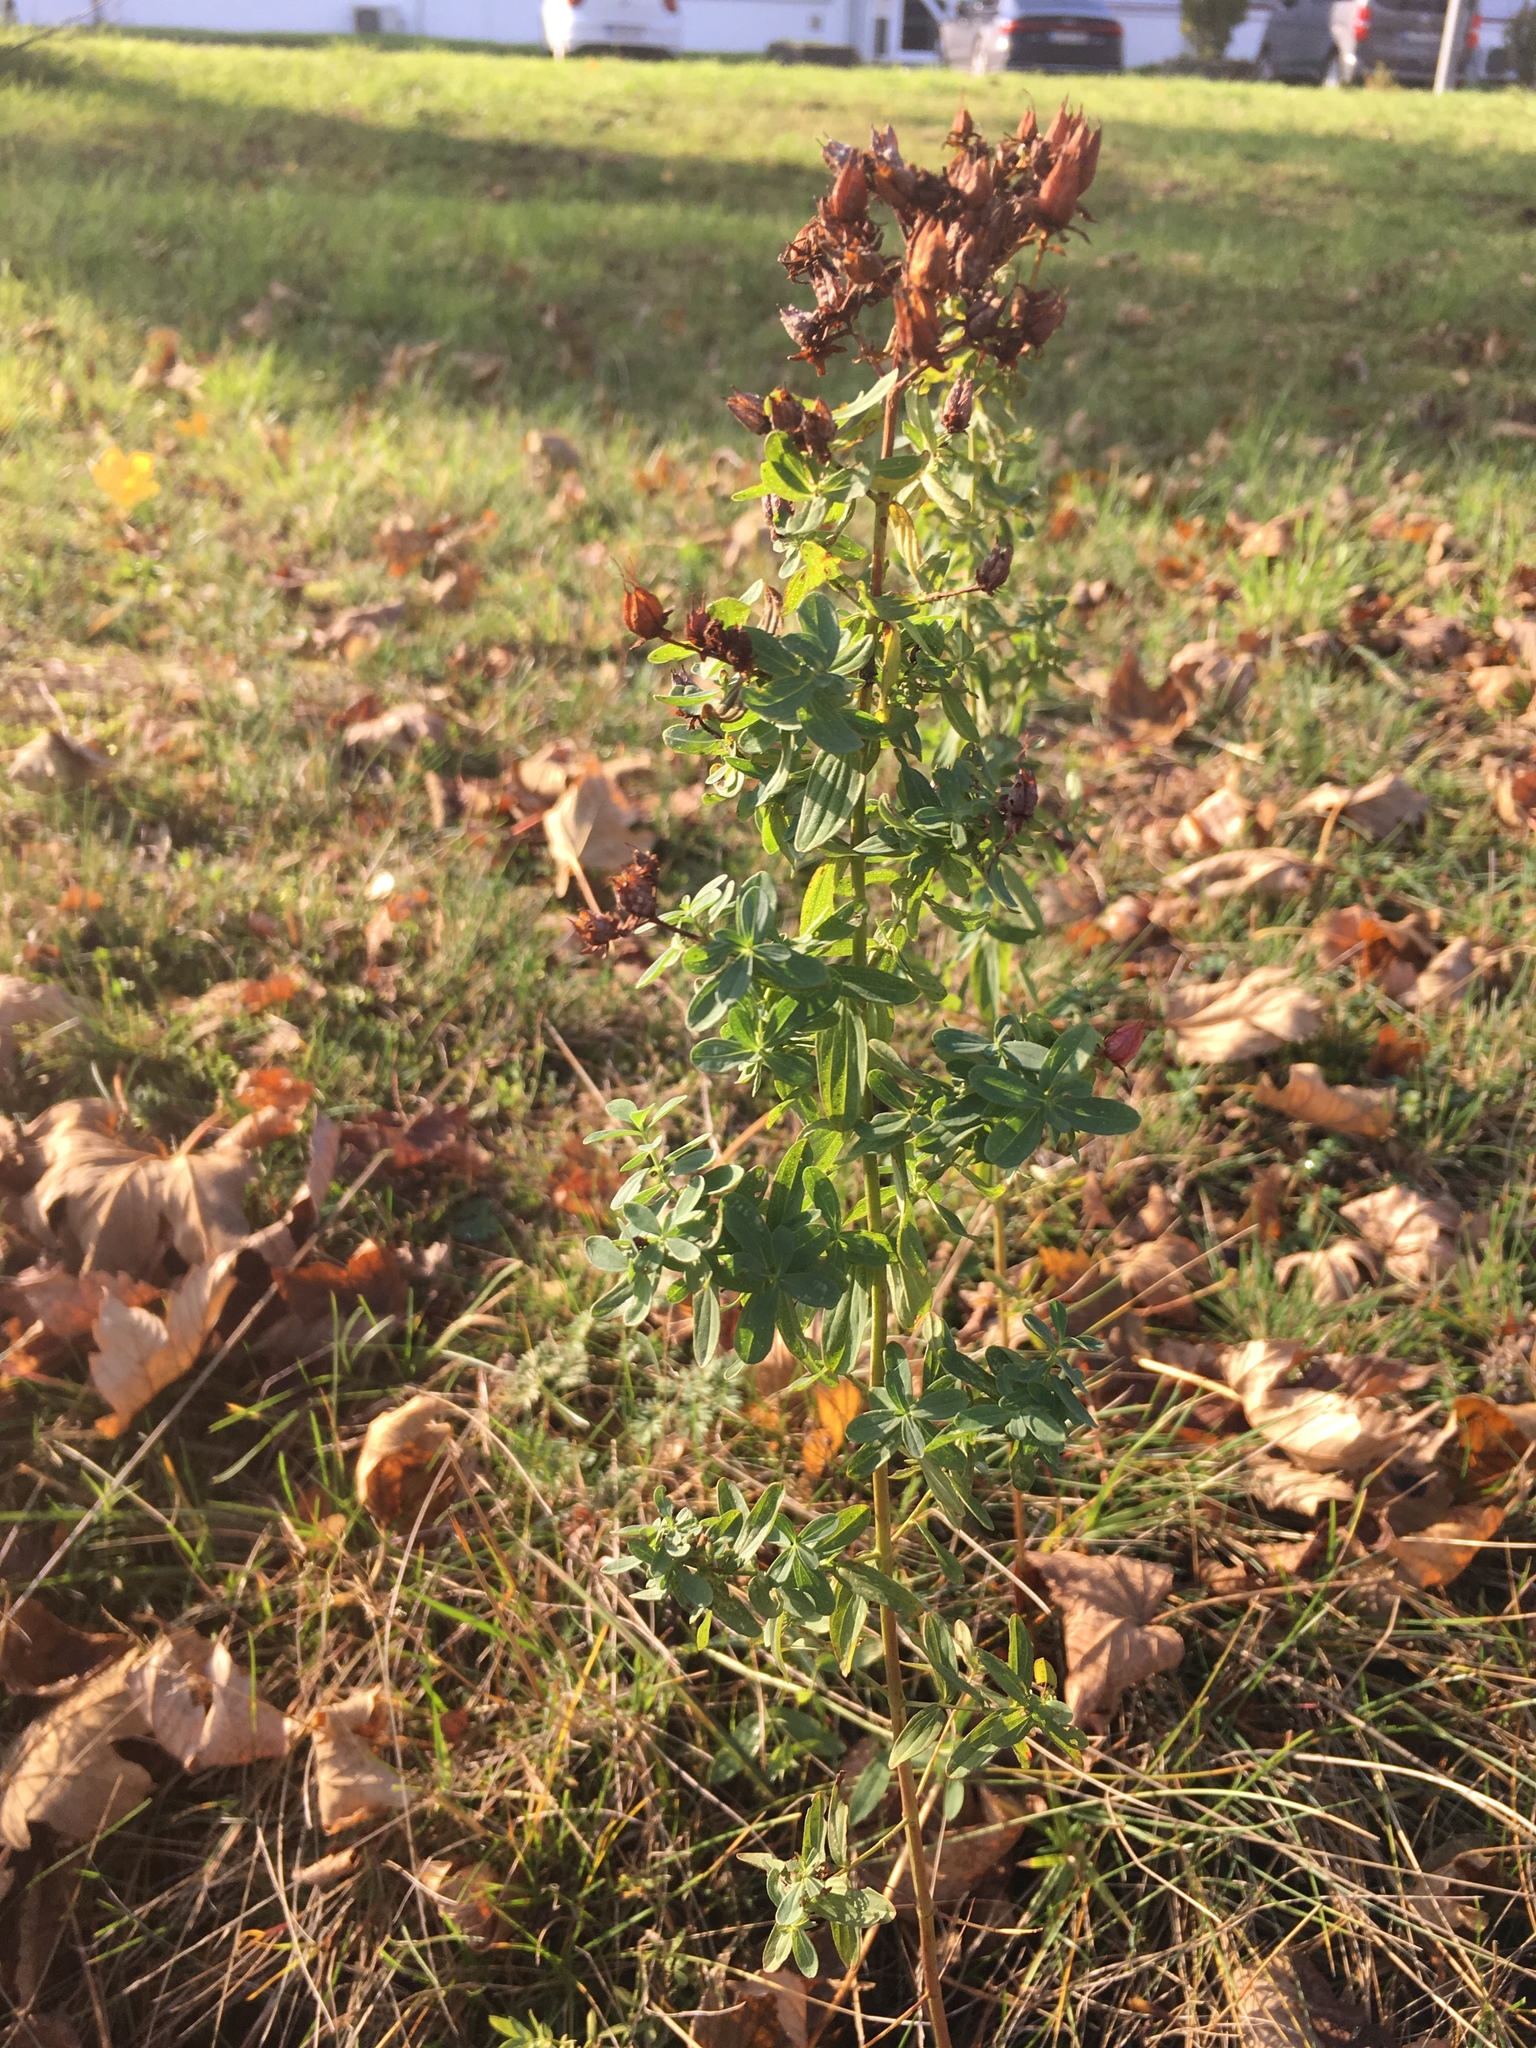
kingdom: Plantae
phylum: Tracheophyta
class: Magnoliopsida
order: Malpighiales
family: Hypericaceae
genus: Hypericum
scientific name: Hypericum perforatum
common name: Common st. johnswort
